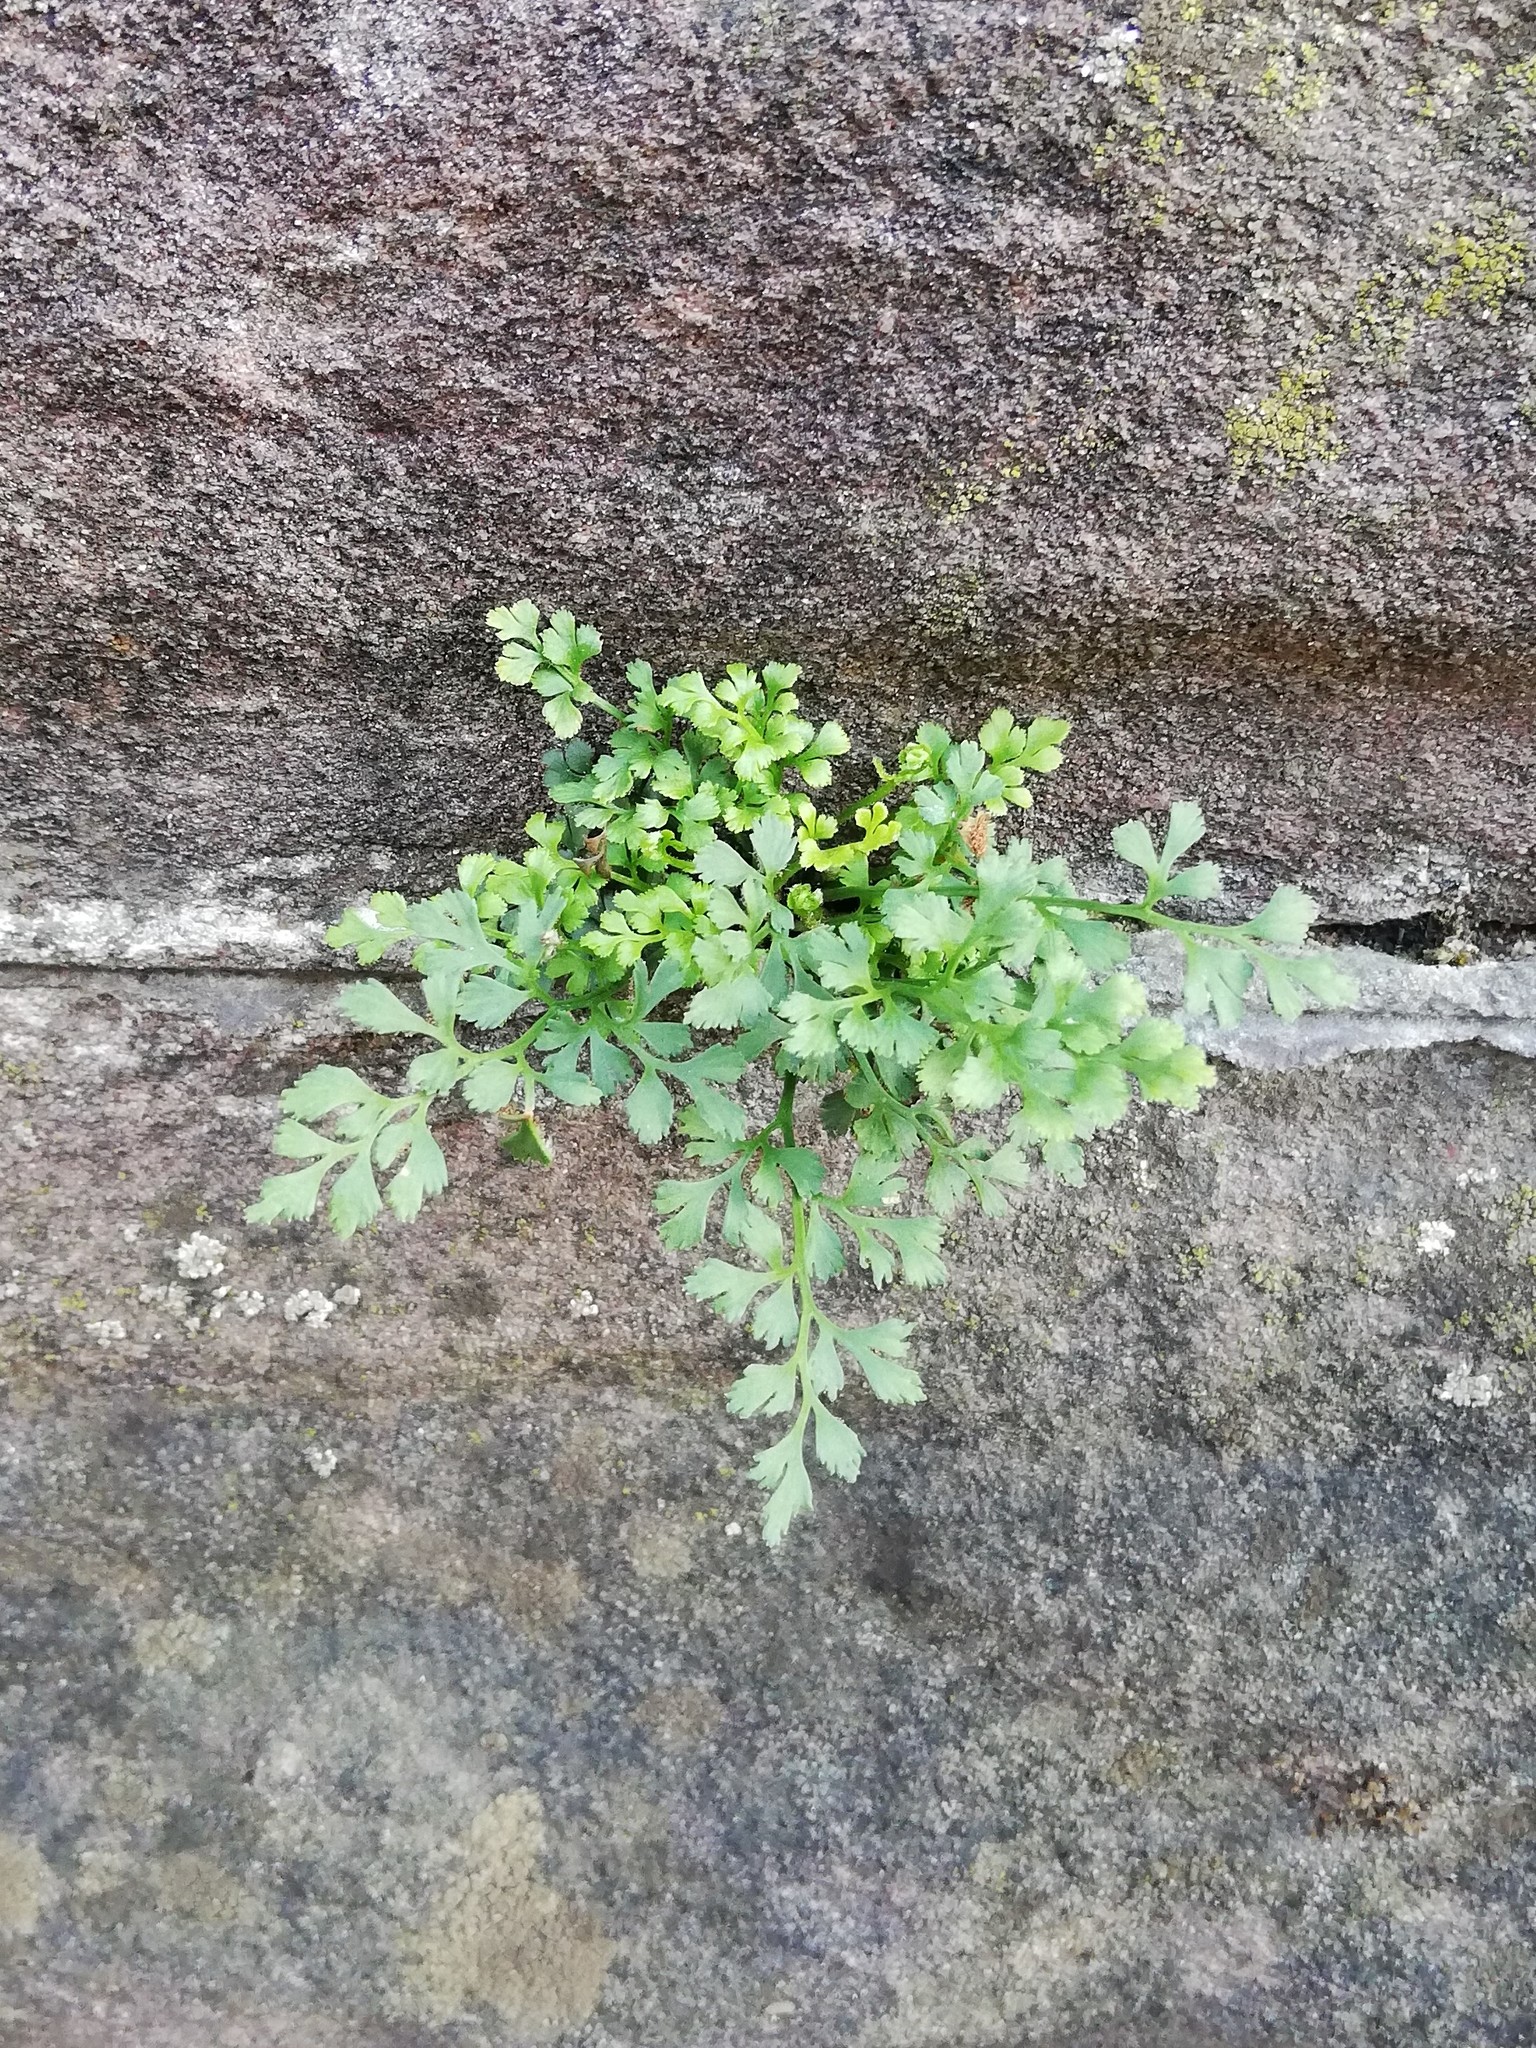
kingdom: Plantae
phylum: Tracheophyta
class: Polypodiopsida
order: Polypodiales
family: Aspleniaceae
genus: Asplenium
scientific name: Asplenium ruta-muraria
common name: Wall-rue
